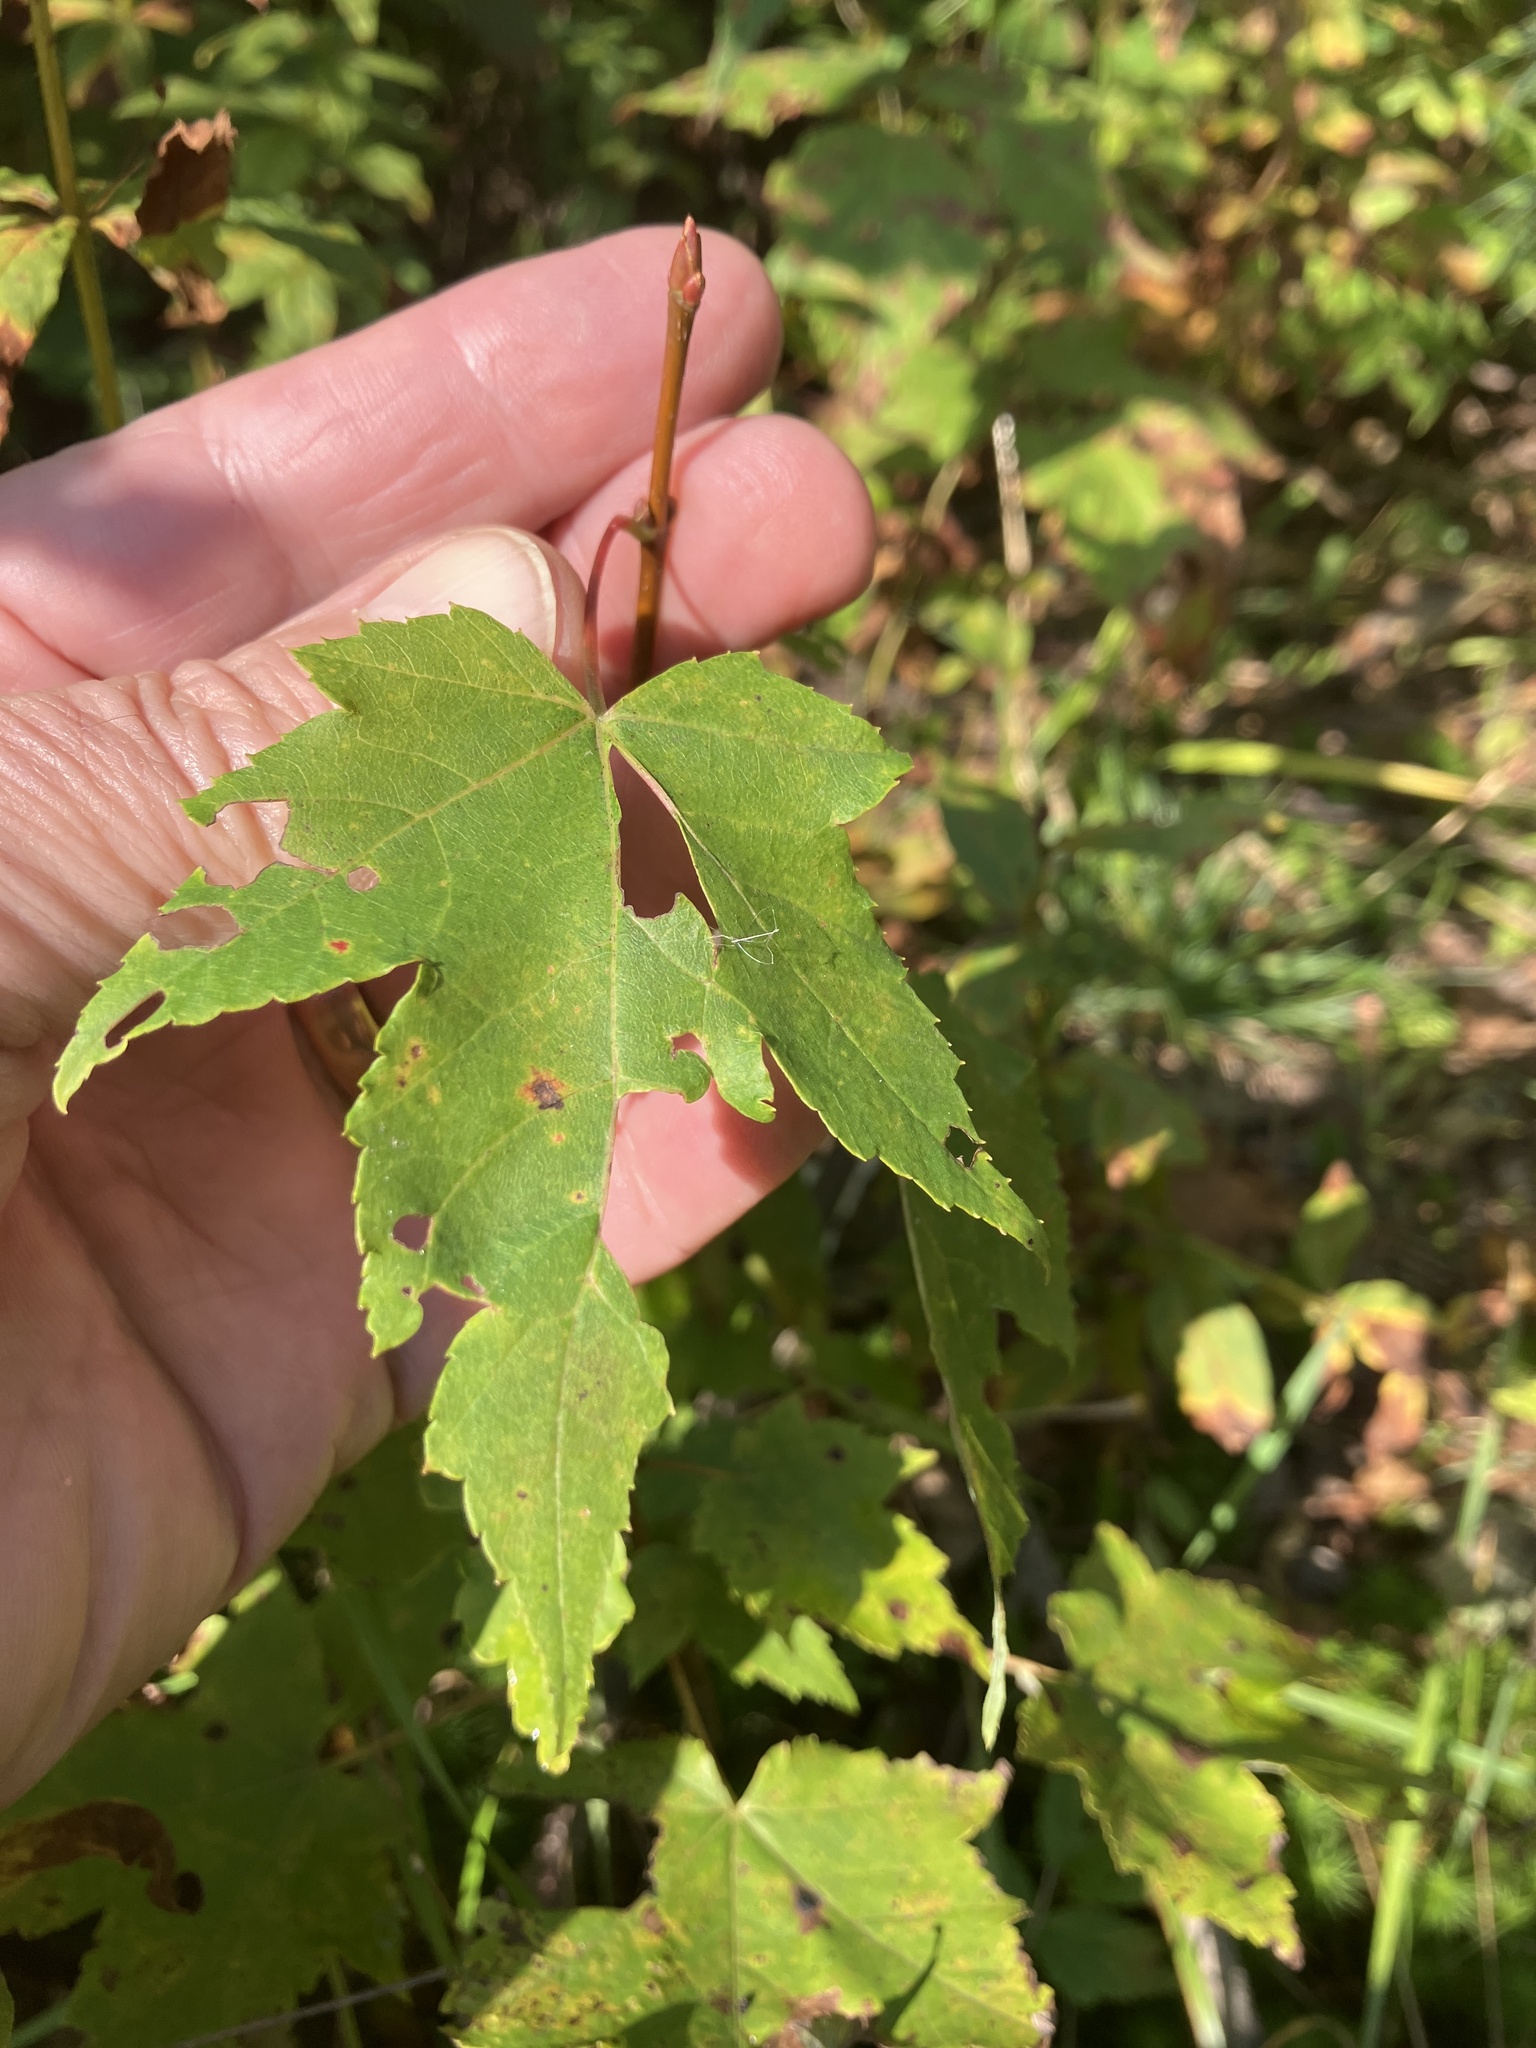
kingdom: Plantae
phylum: Tracheophyta
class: Magnoliopsida
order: Sapindales
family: Sapindaceae
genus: Acer
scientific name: Acer rubrum
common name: Red maple
